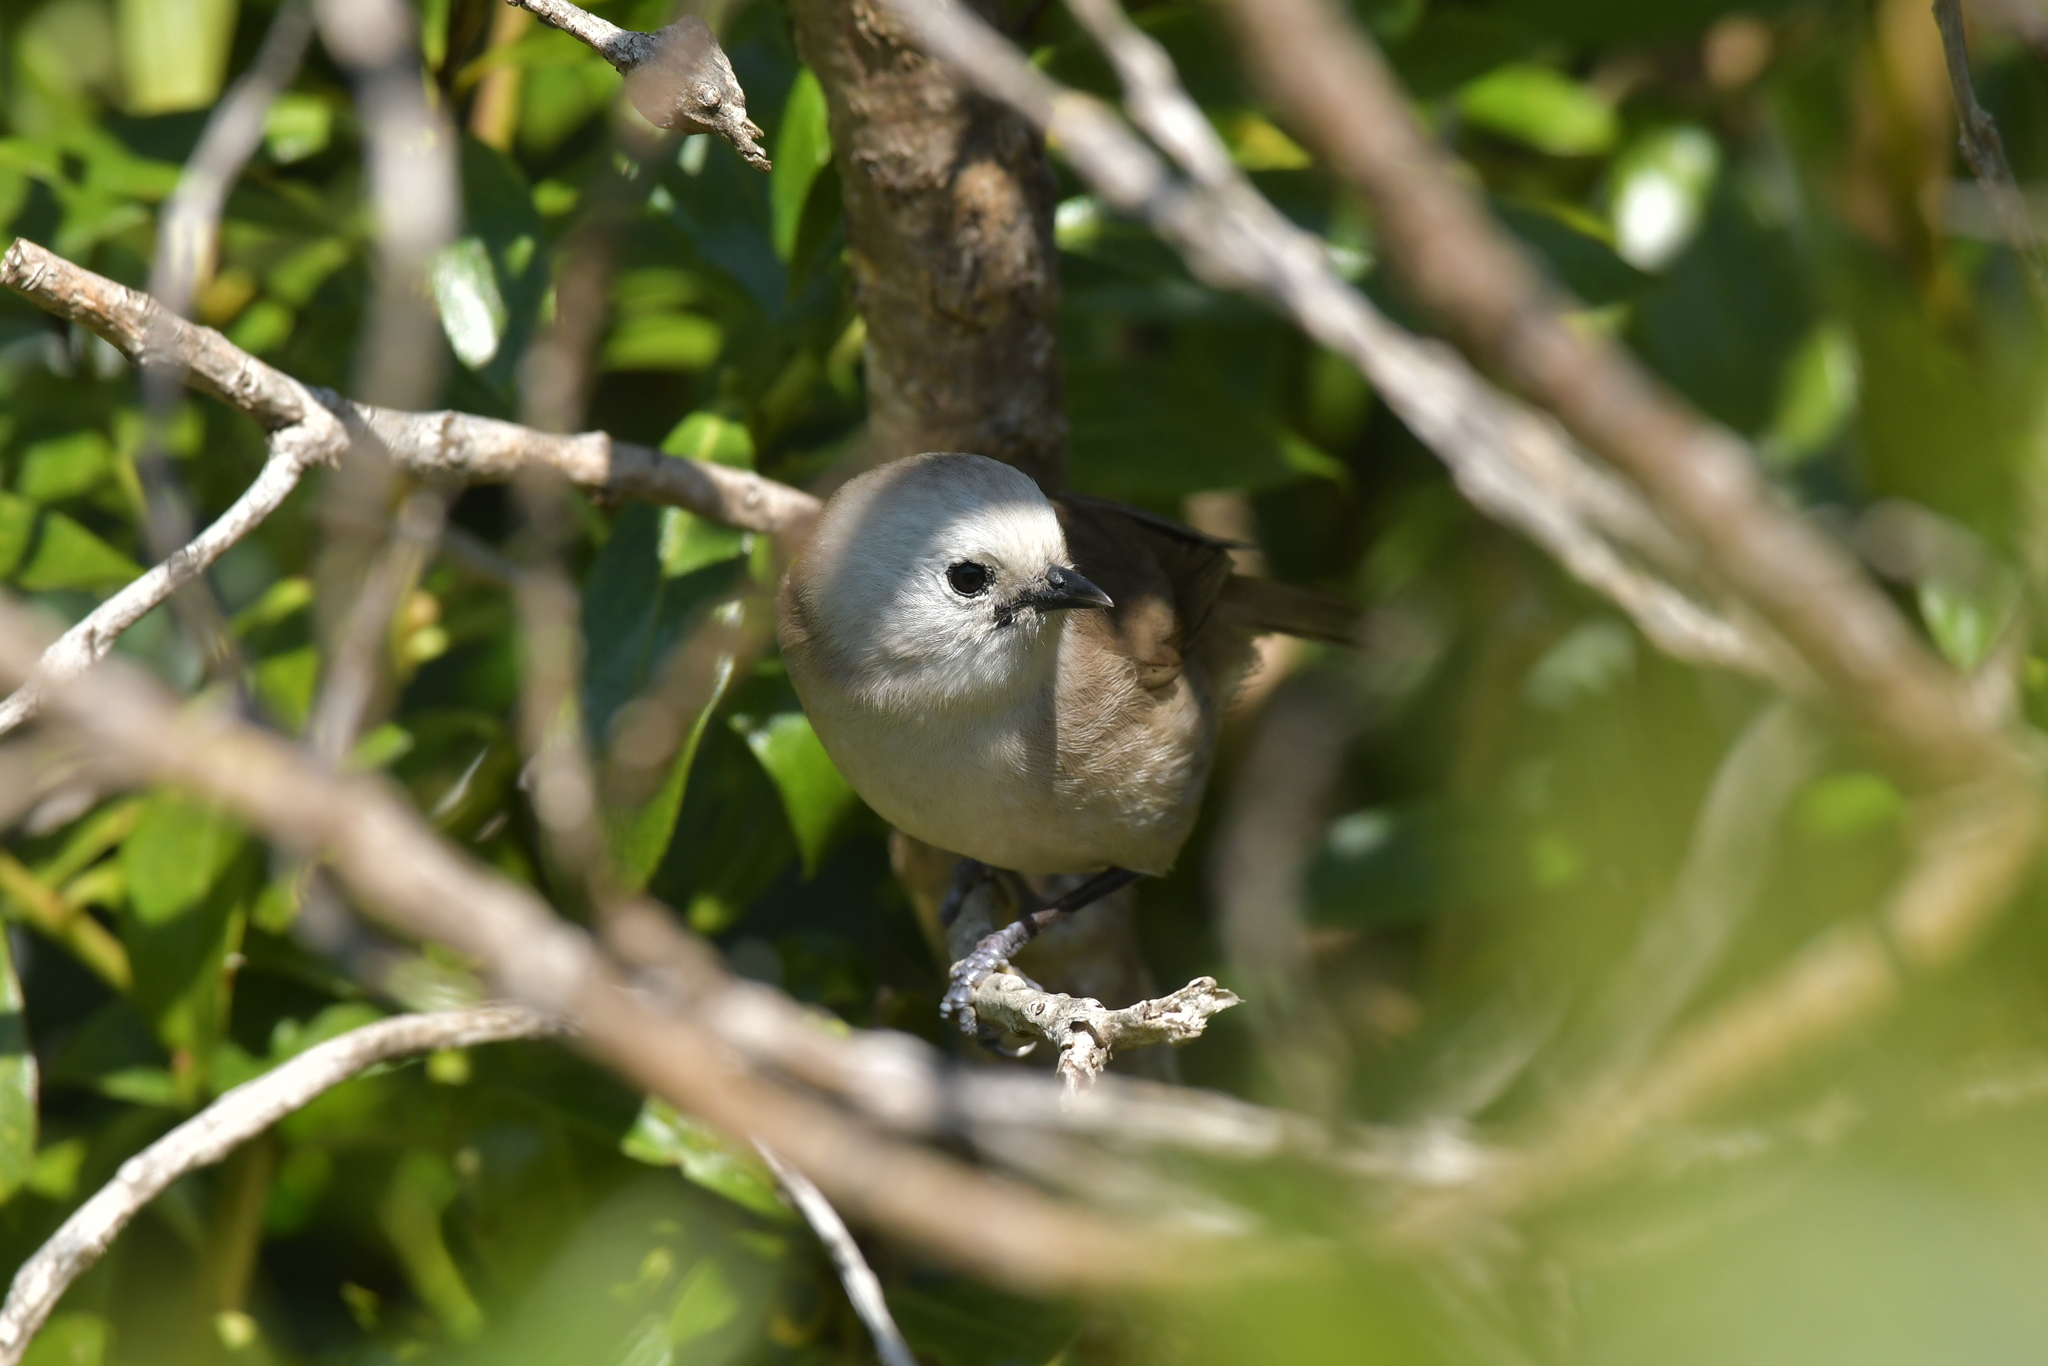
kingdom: Animalia
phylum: Chordata
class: Aves
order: Passeriformes
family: Acanthizidae
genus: Mohoua
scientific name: Mohoua albicilla
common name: Whitehead
